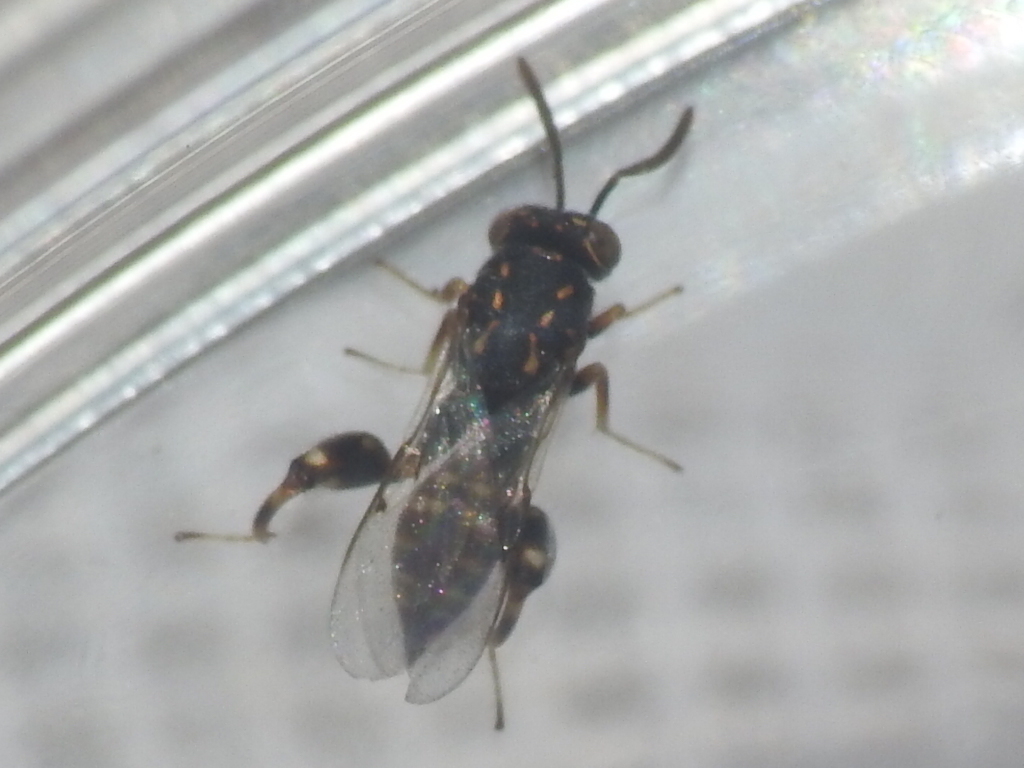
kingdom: Animalia
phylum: Arthropoda
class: Insecta
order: Hymenoptera
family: Chalcididae
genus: Conura
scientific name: Conura
